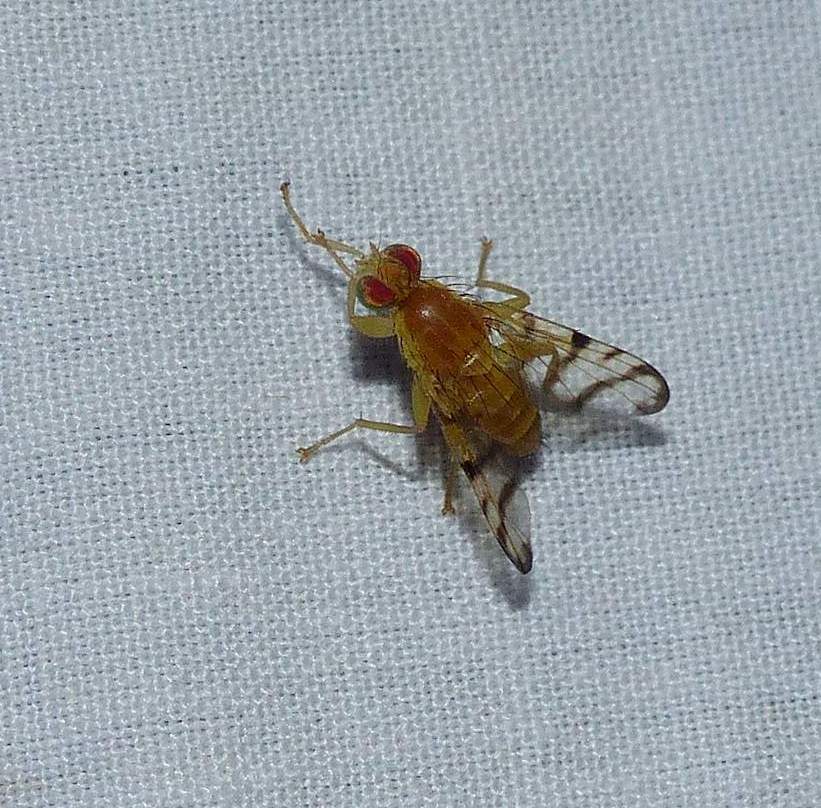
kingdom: Animalia
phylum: Arthropoda
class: Insecta
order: Diptera
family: Tephritidae
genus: Rhagoletis
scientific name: Rhagoletis basiola
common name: Rose hip fly
